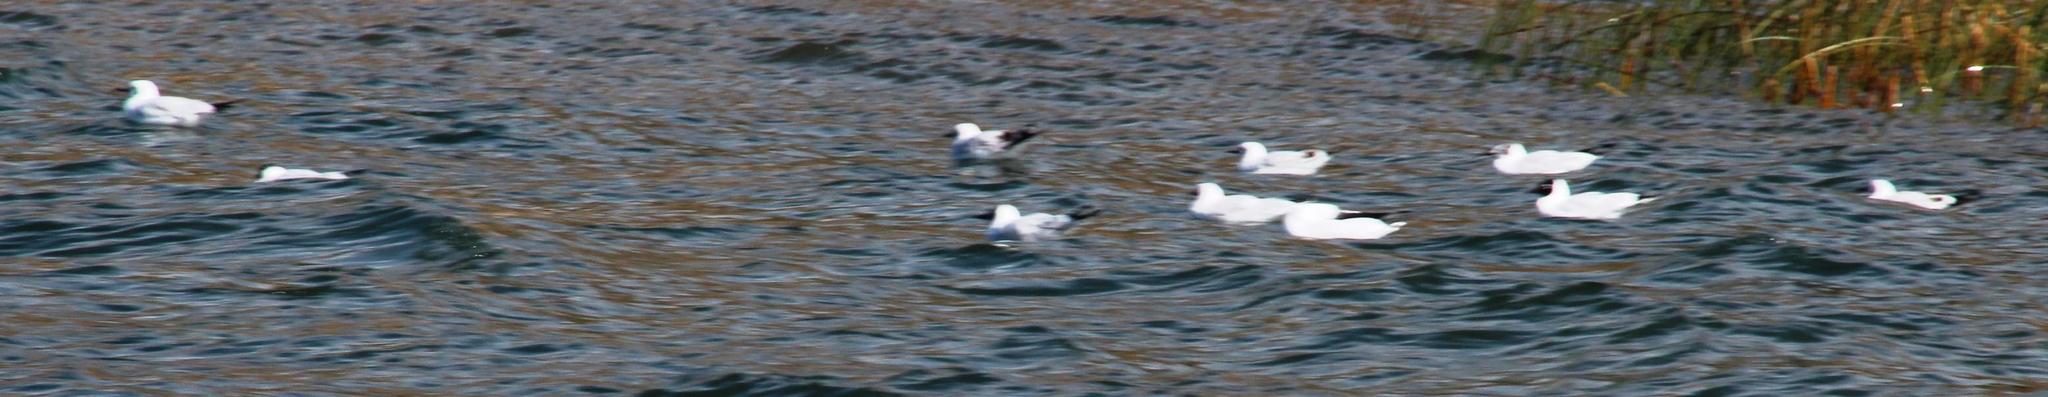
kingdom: Animalia
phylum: Chordata
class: Aves
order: Charadriiformes
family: Laridae
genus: Chroicocephalus
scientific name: Chroicocephalus serranus
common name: Andean gull
